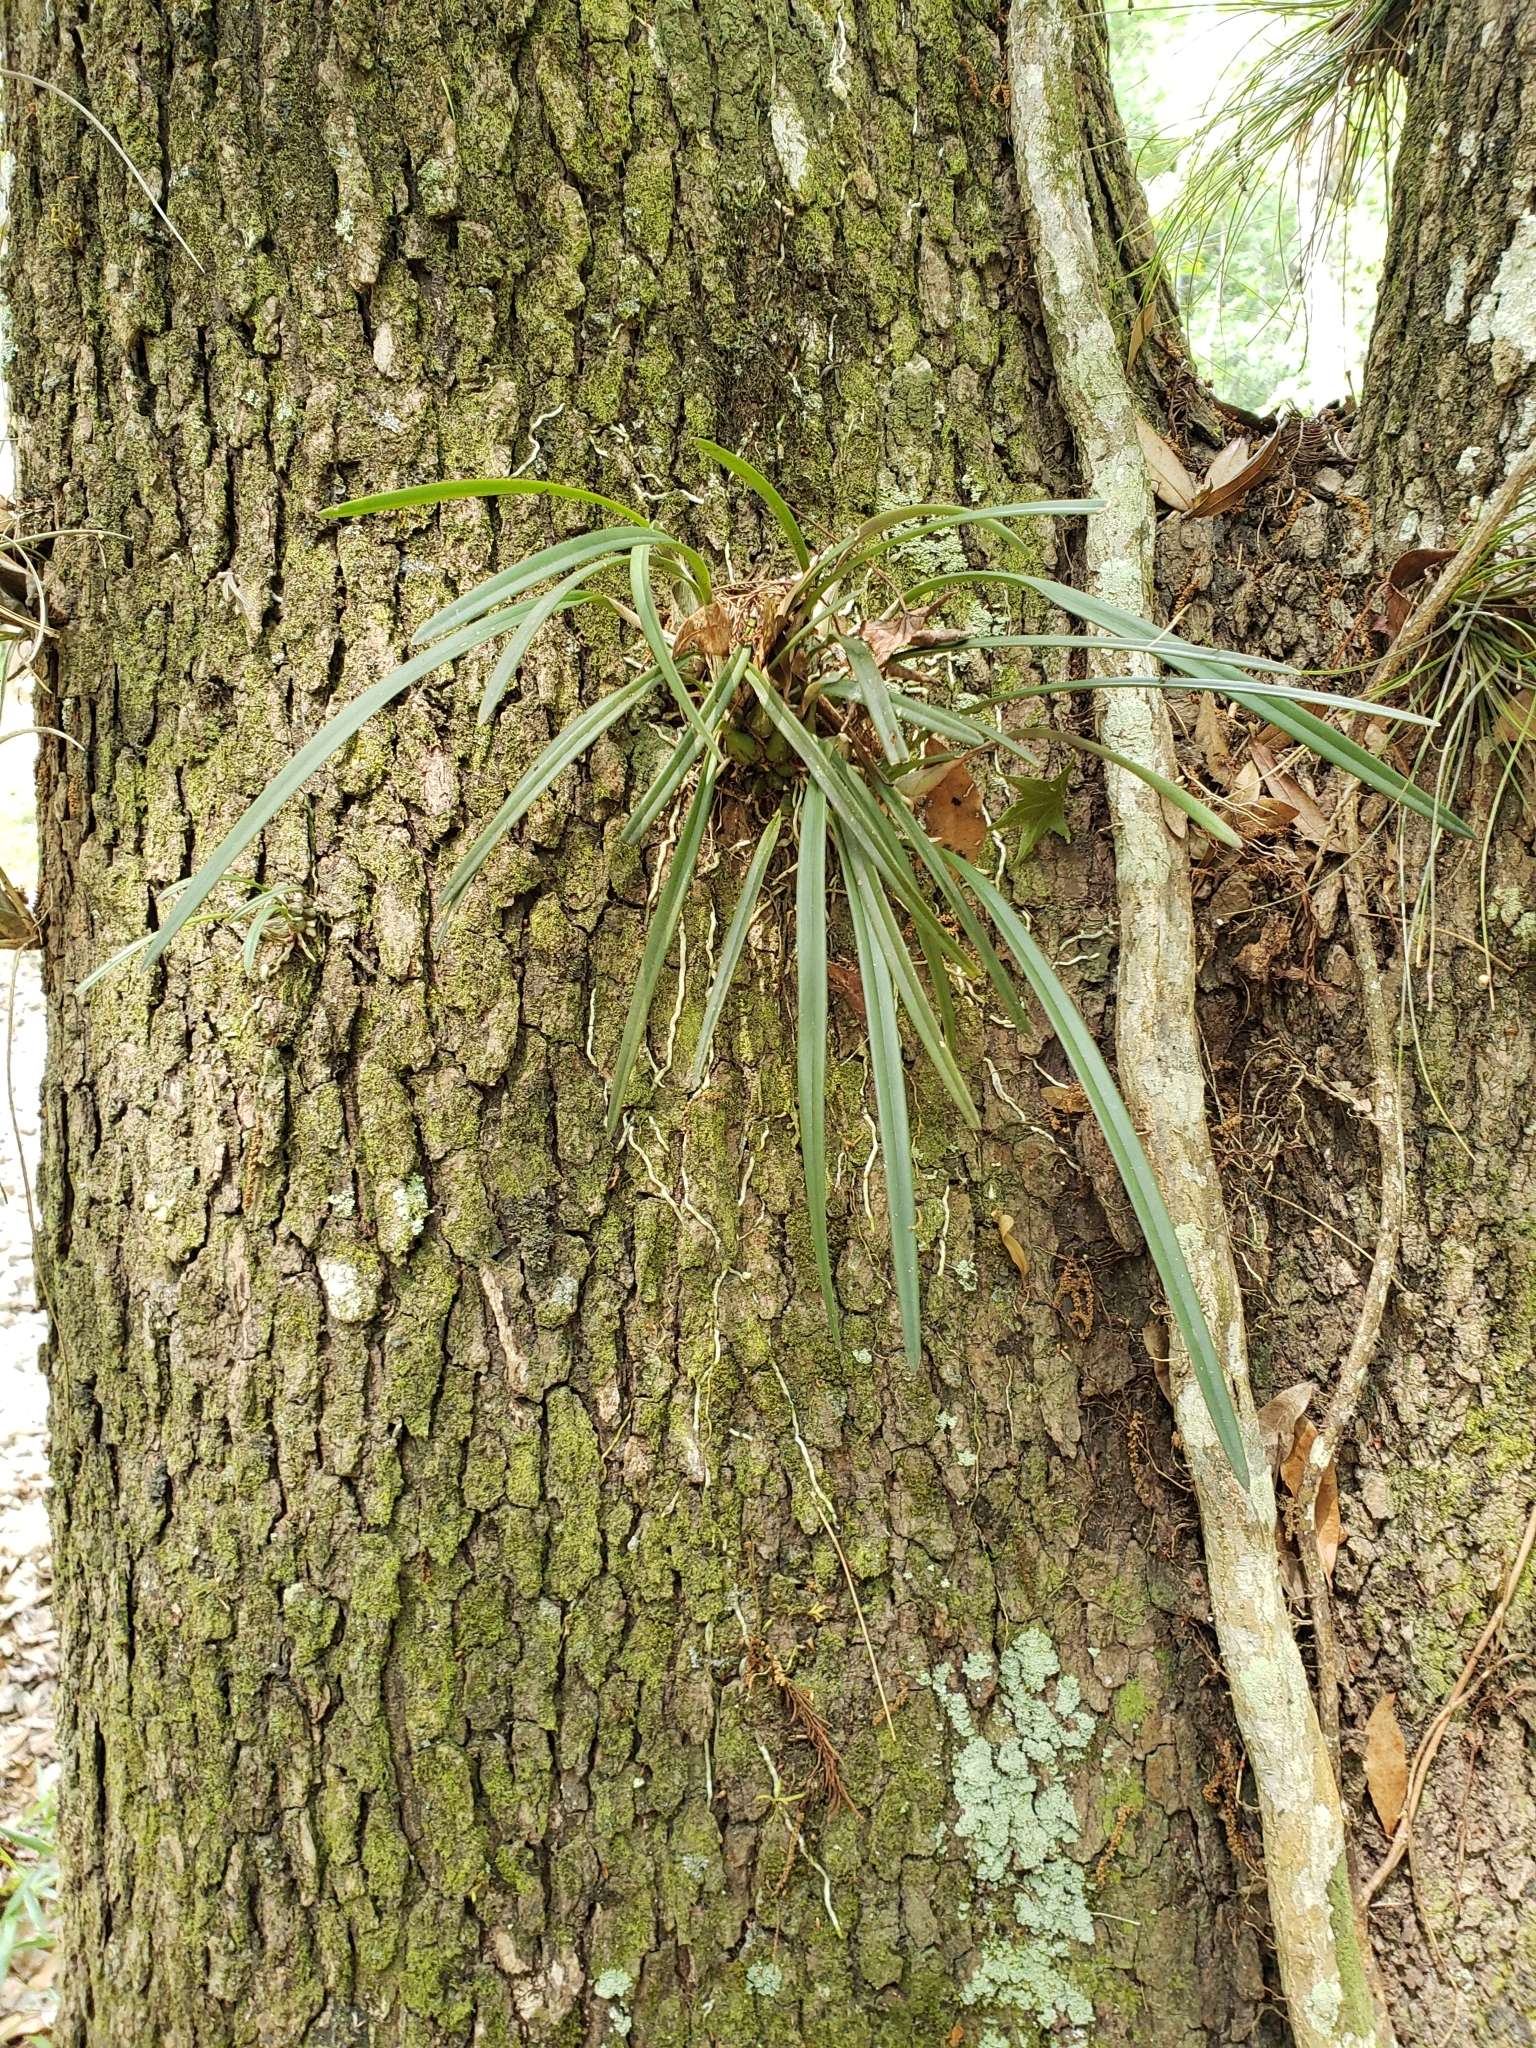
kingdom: Plantae
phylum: Tracheophyta
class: Liliopsida
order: Asparagales
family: Orchidaceae
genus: Encyclia
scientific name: Encyclia tampensis
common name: Florida butterfly orchid
